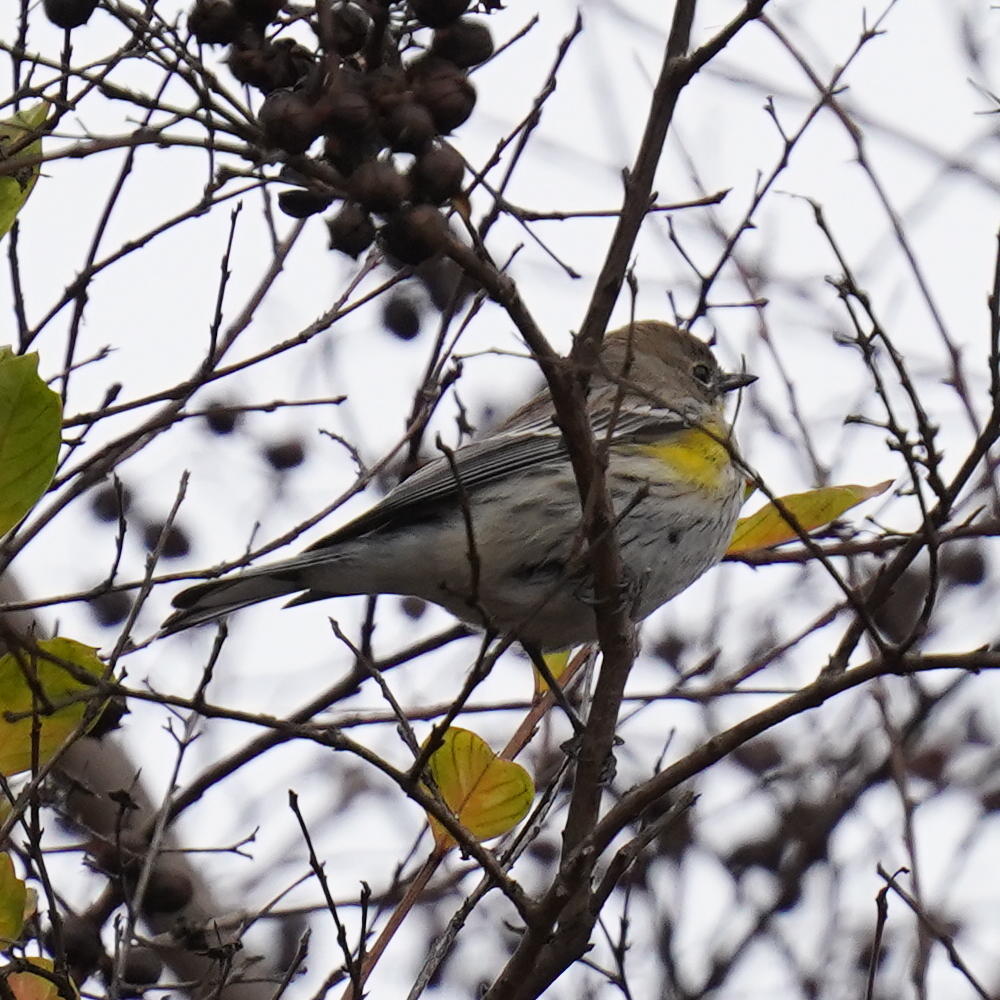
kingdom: Animalia
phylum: Chordata
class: Aves
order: Passeriformes
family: Parulidae
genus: Setophaga
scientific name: Setophaga coronata
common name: Myrtle warbler
